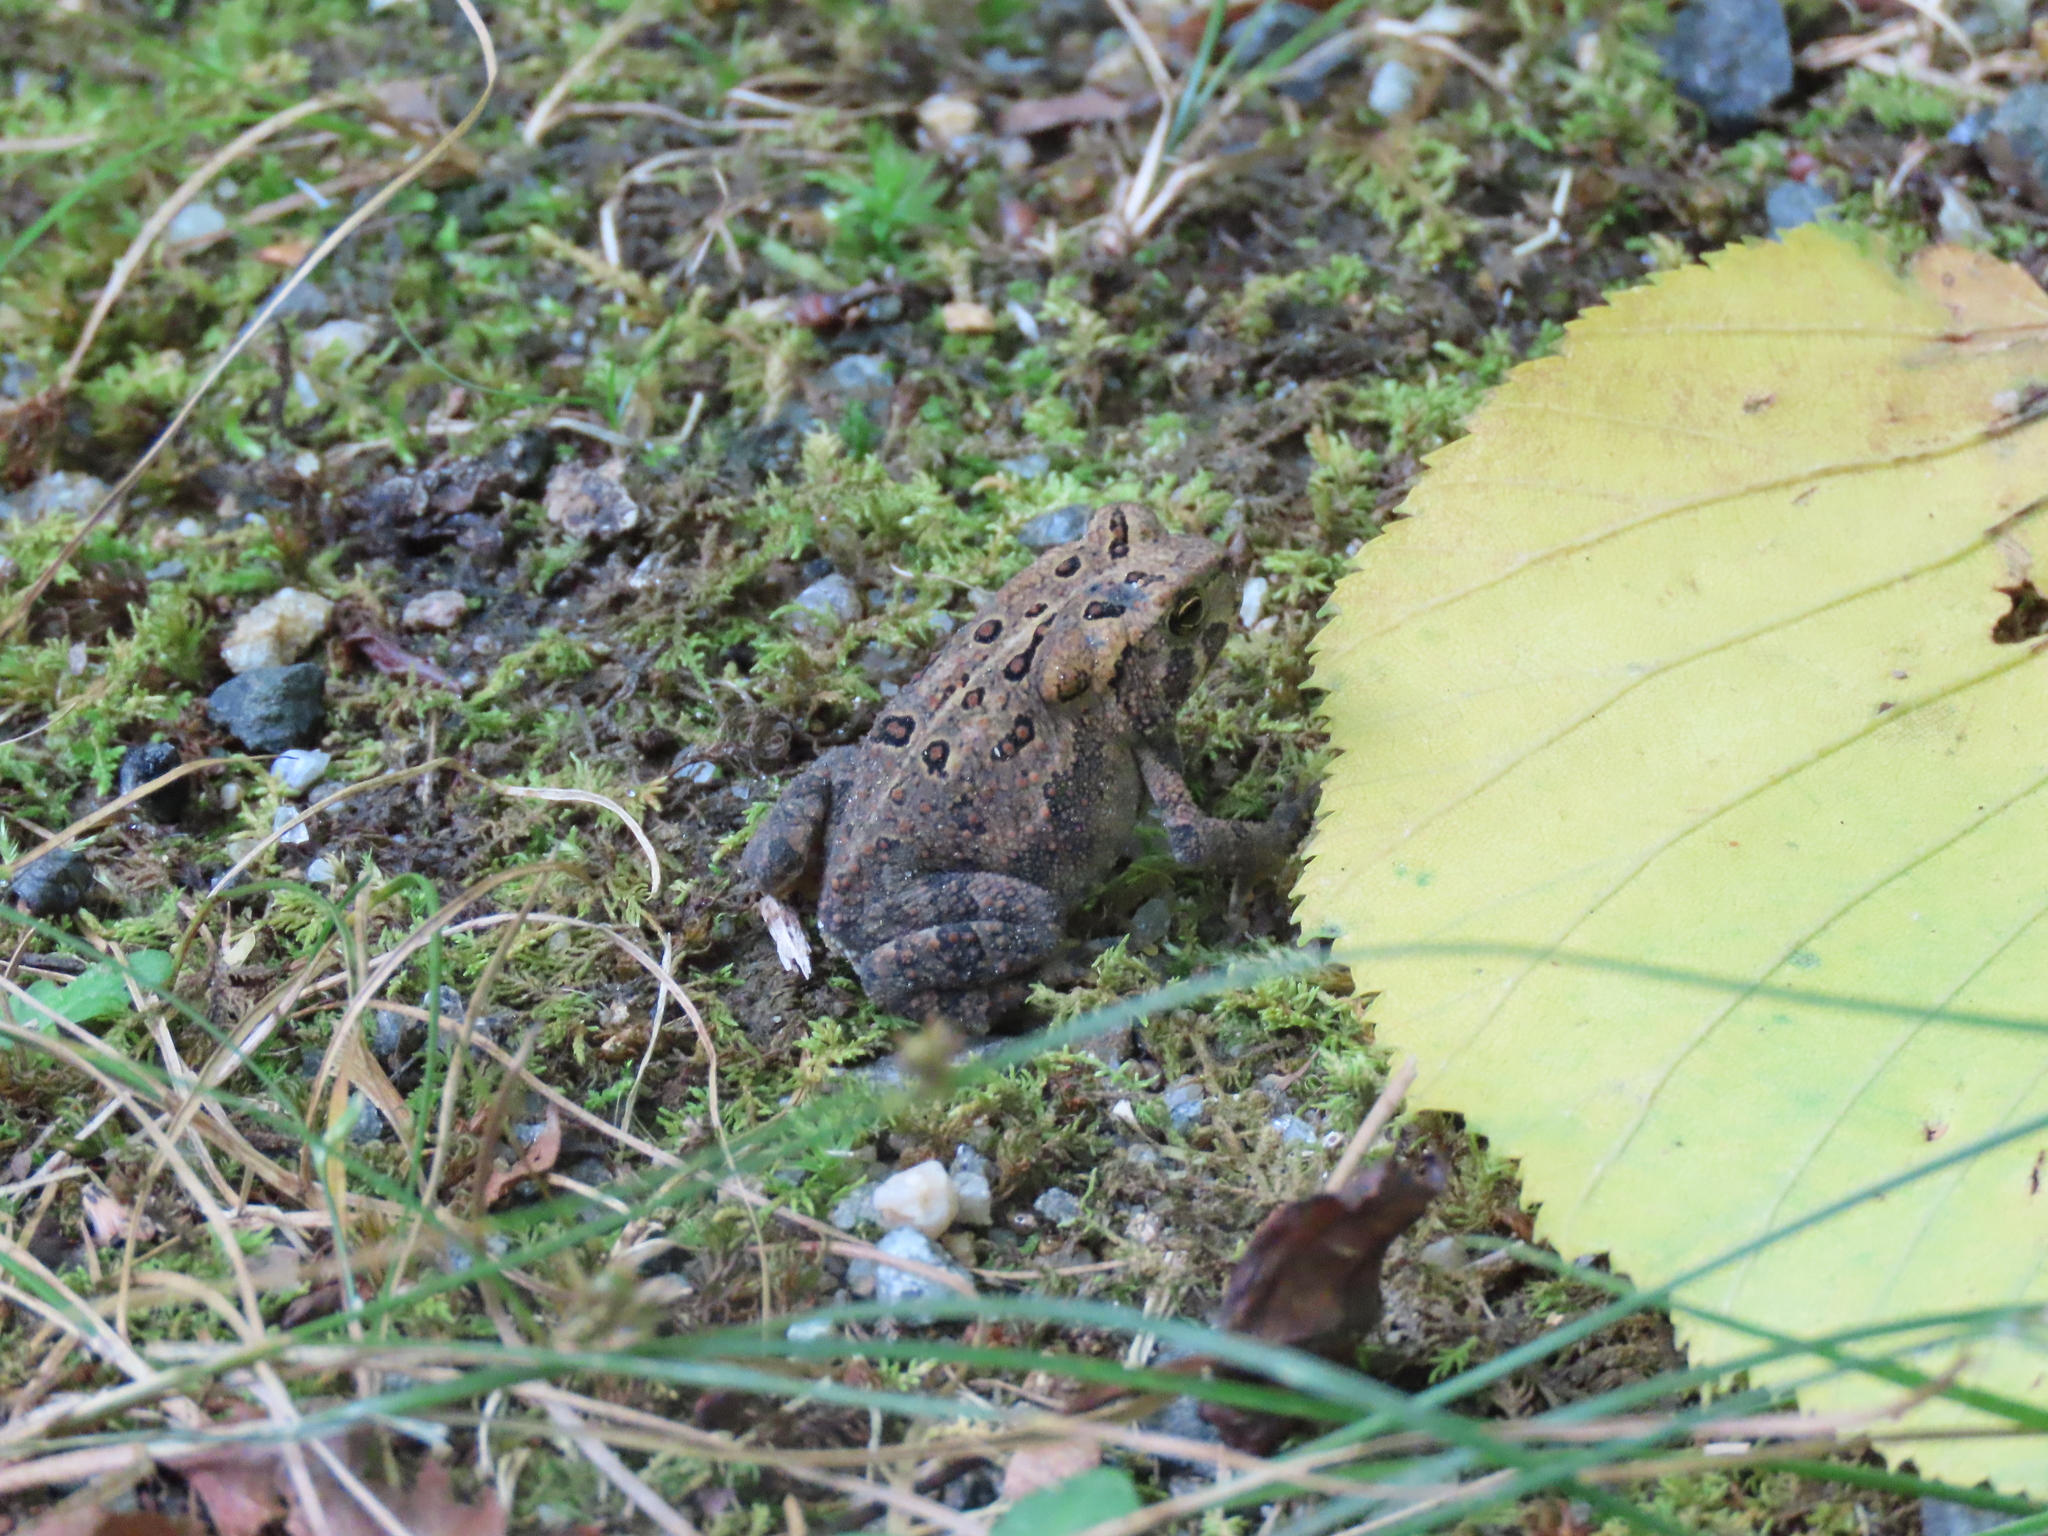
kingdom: Animalia
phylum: Chordata
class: Amphibia
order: Anura
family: Bufonidae
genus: Anaxyrus
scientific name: Anaxyrus americanus
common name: American toad
